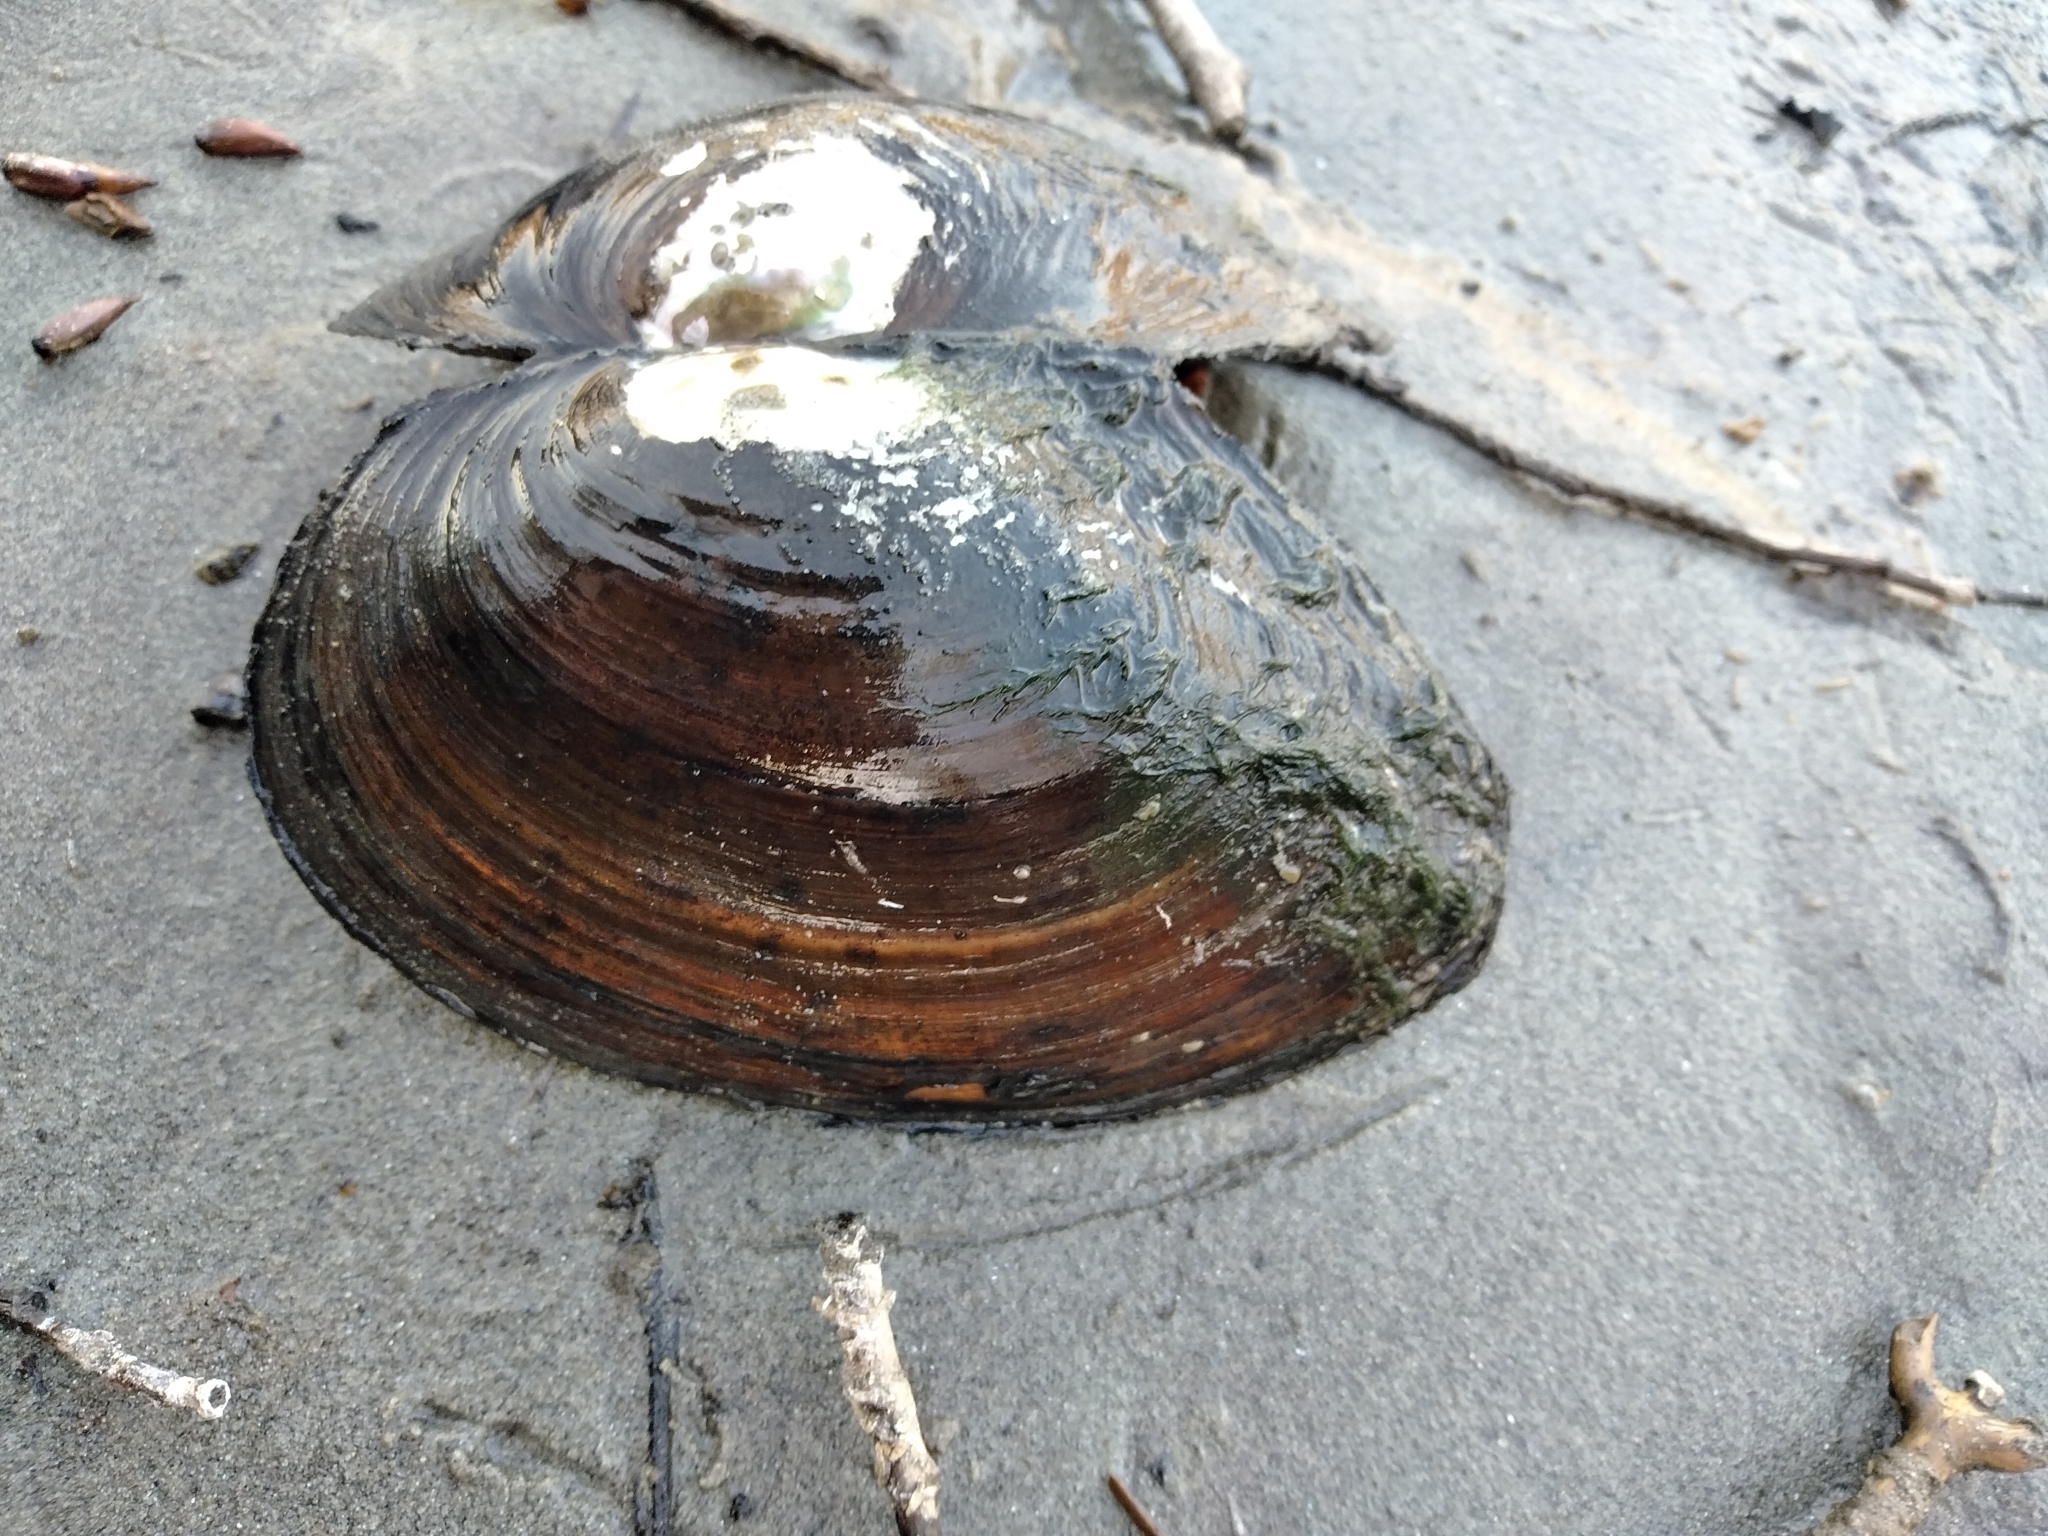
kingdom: Animalia
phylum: Mollusca
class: Bivalvia
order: Unionida
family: Unionidae
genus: Sinanodonta
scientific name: Sinanodonta woodiana
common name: Chinese pond mussel
